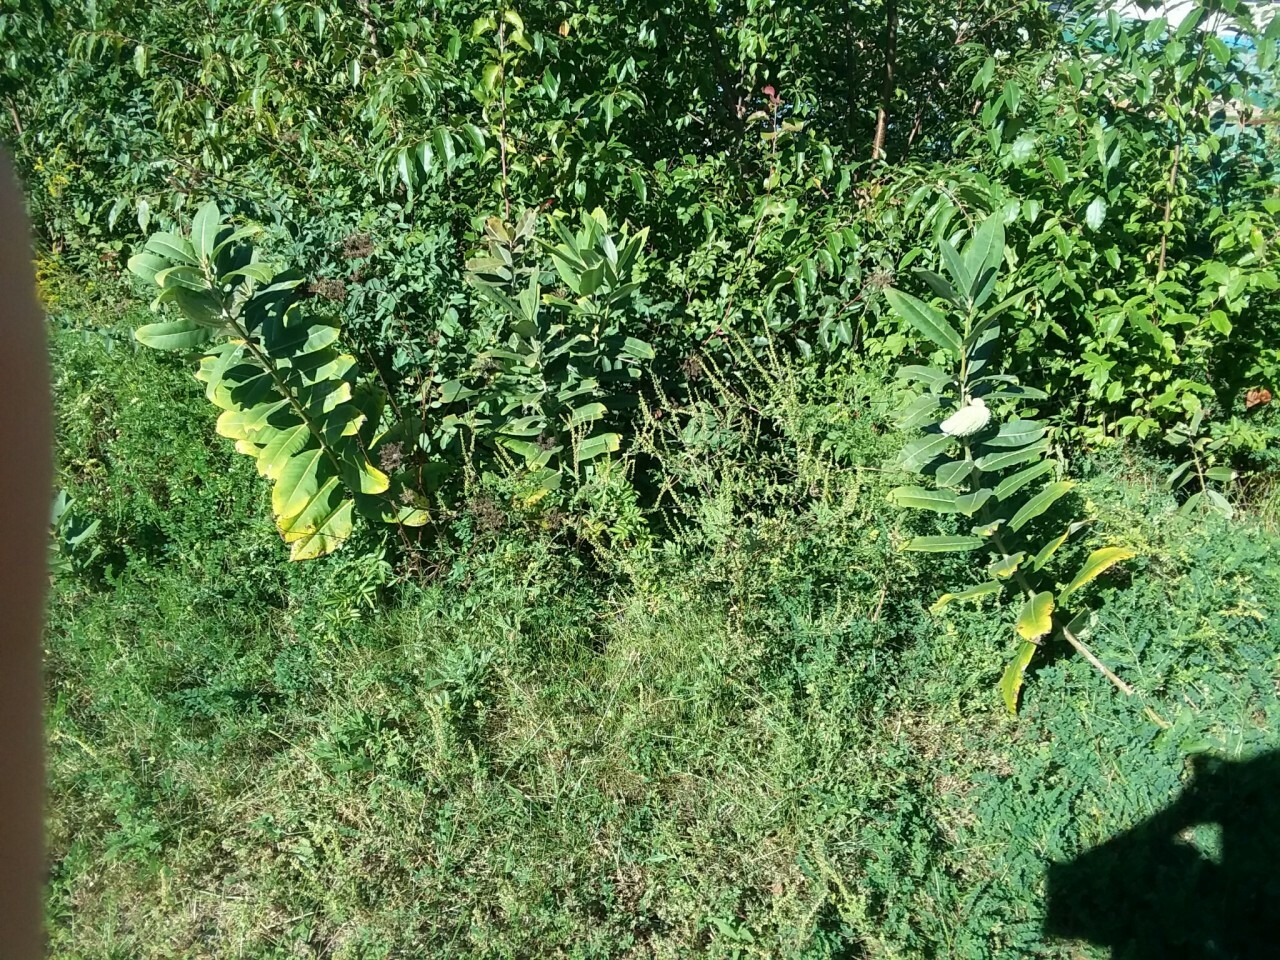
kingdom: Plantae
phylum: Tracheophyta
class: Magnoliopsida
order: Gentianales
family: Apocynaceae
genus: Asclepias
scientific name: Asclepias syriaca
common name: Common milkweed
